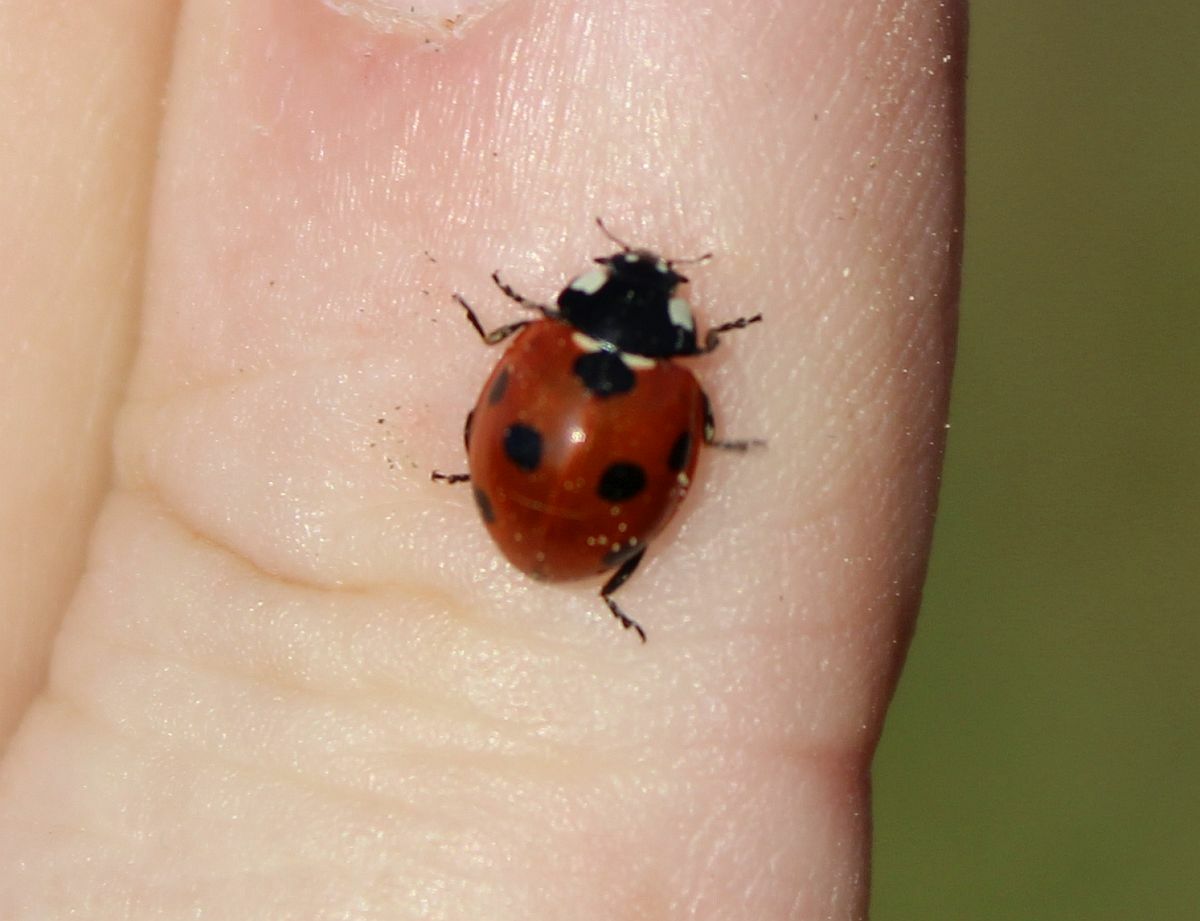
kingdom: Animalia
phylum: Arthropoda
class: Insecta
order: Coleoptera
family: Coccinellidae
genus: Coccinella
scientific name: Coccinella septempunctata
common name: Sevenspotted lady beetle
